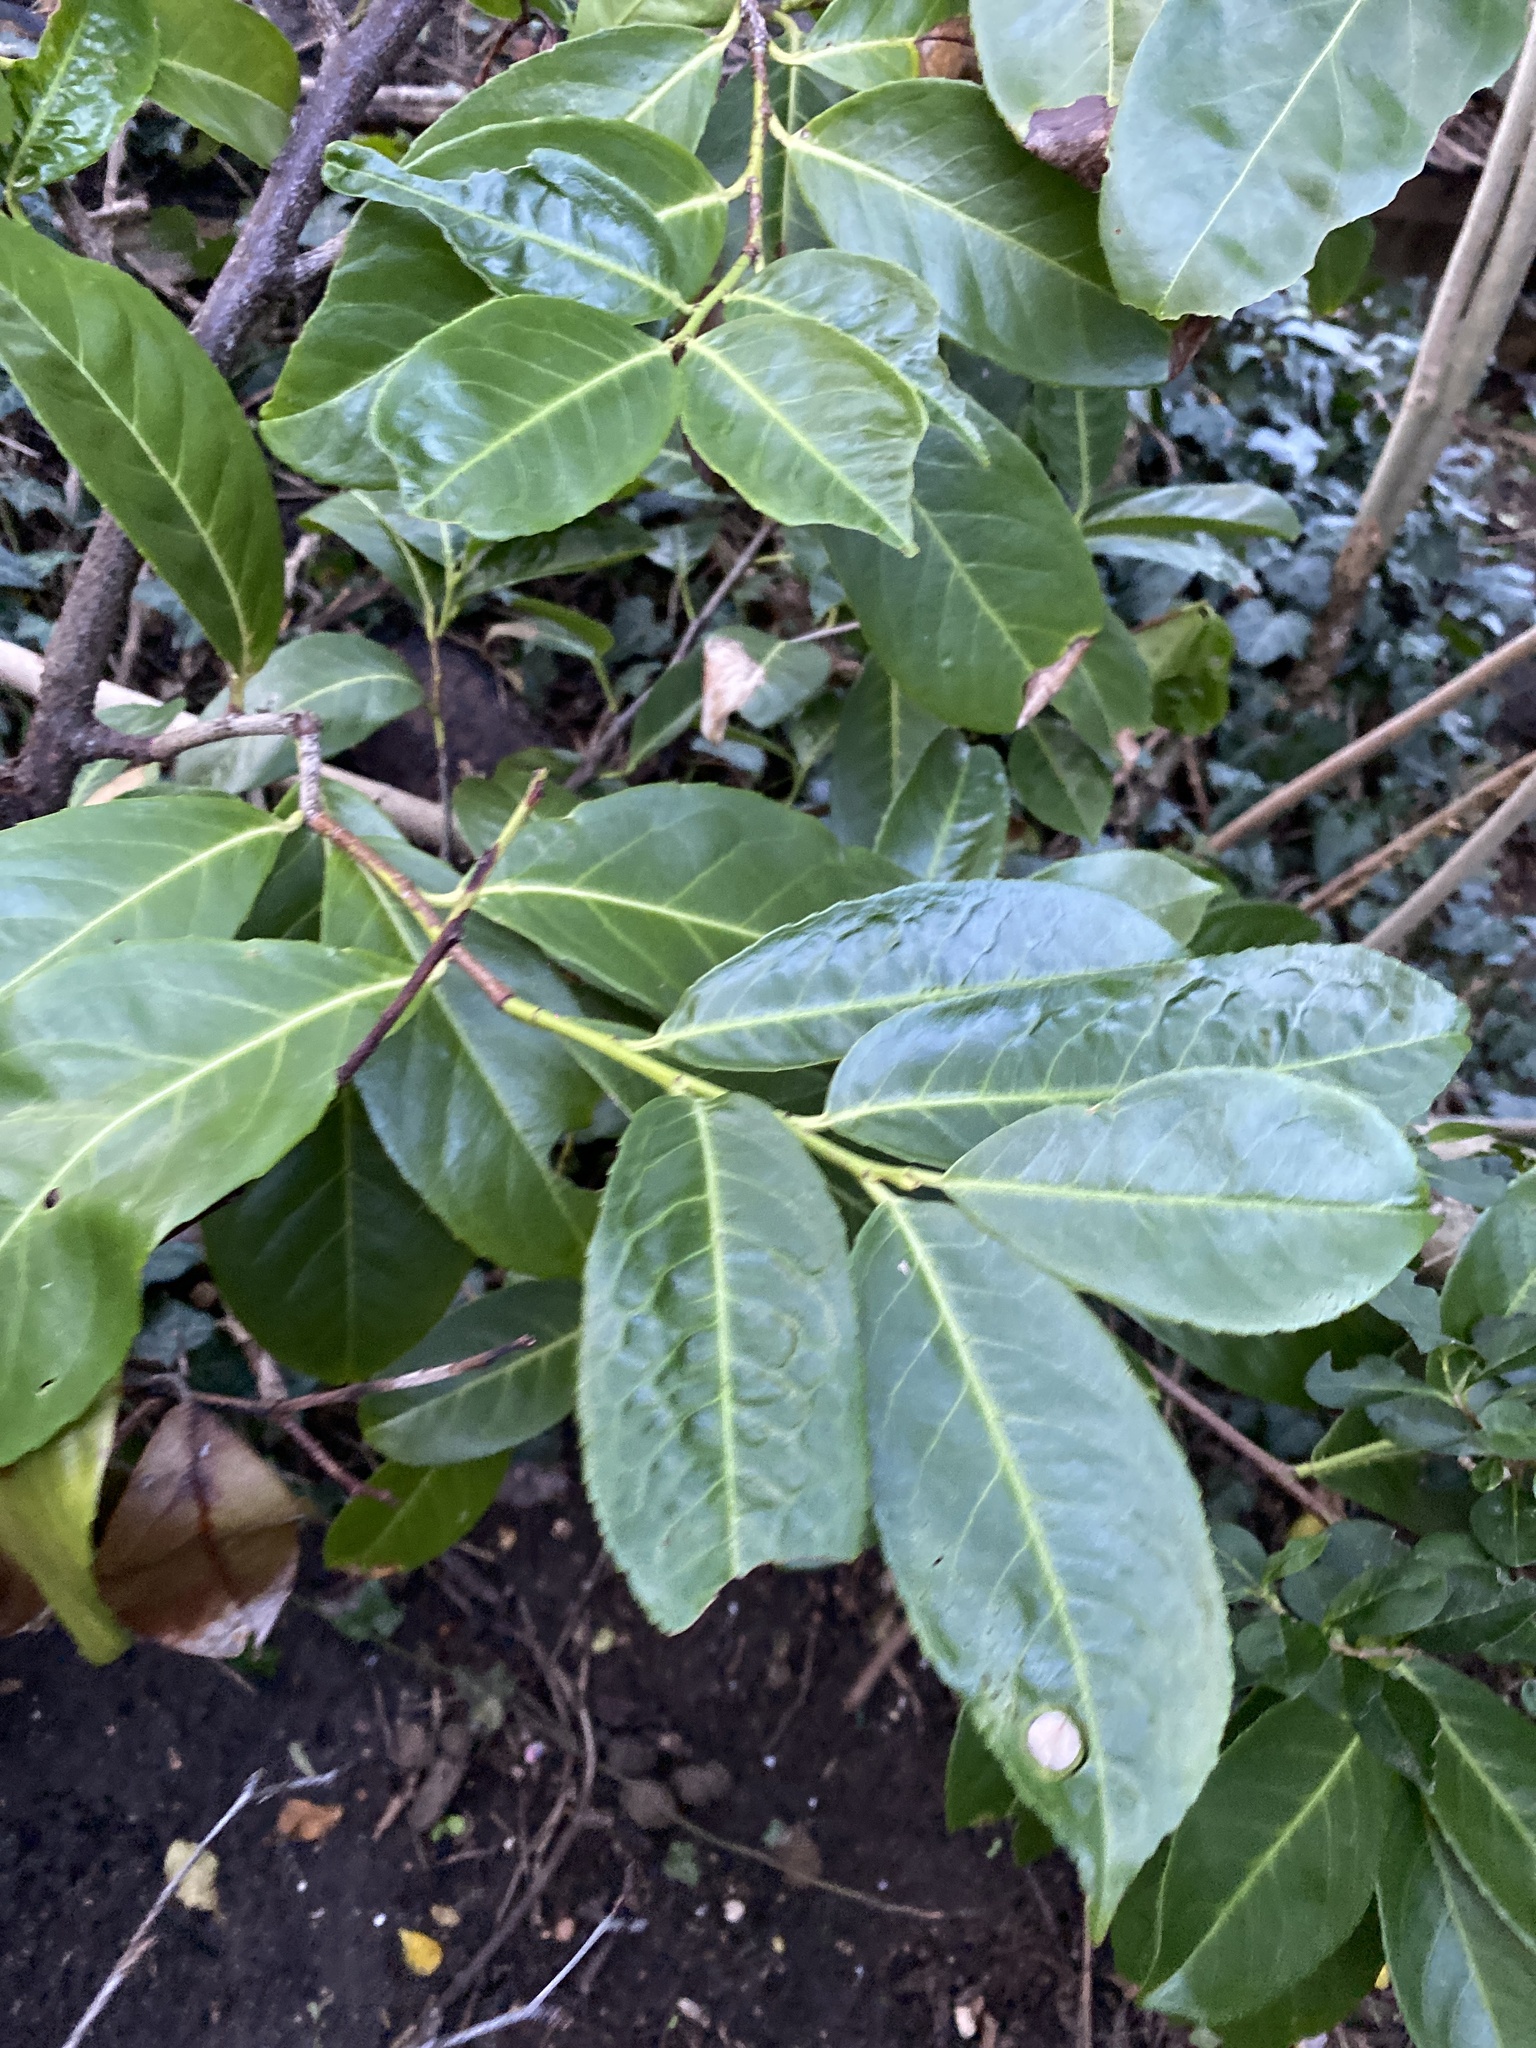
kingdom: Plantae
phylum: Tracheophyta
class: Magnoliopsida
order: Rosales
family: Rosaceae
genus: Prunus
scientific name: Prunus laurocerasus
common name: Cherry laurel
